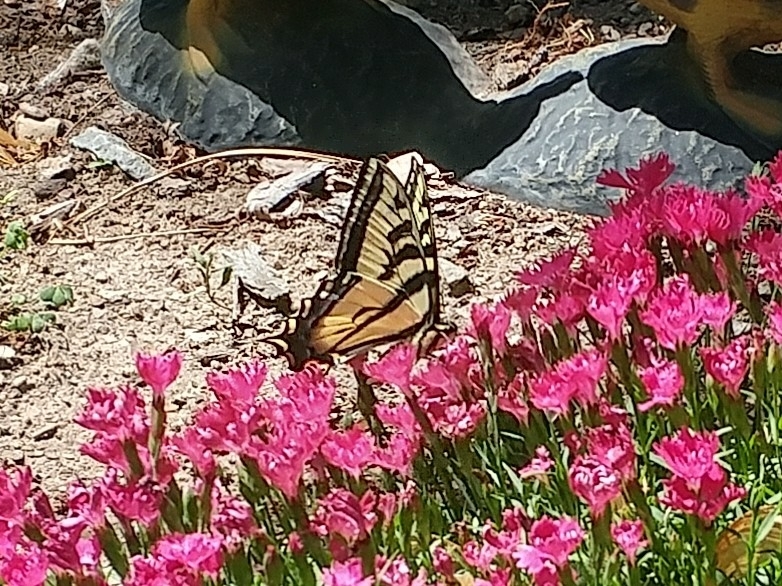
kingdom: Animalia
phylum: Arthropoda
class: Insecta
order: Lepidoptera
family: Papilionidae
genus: Papilio
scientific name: Papilio rutulus
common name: Western tiger swallowtail
